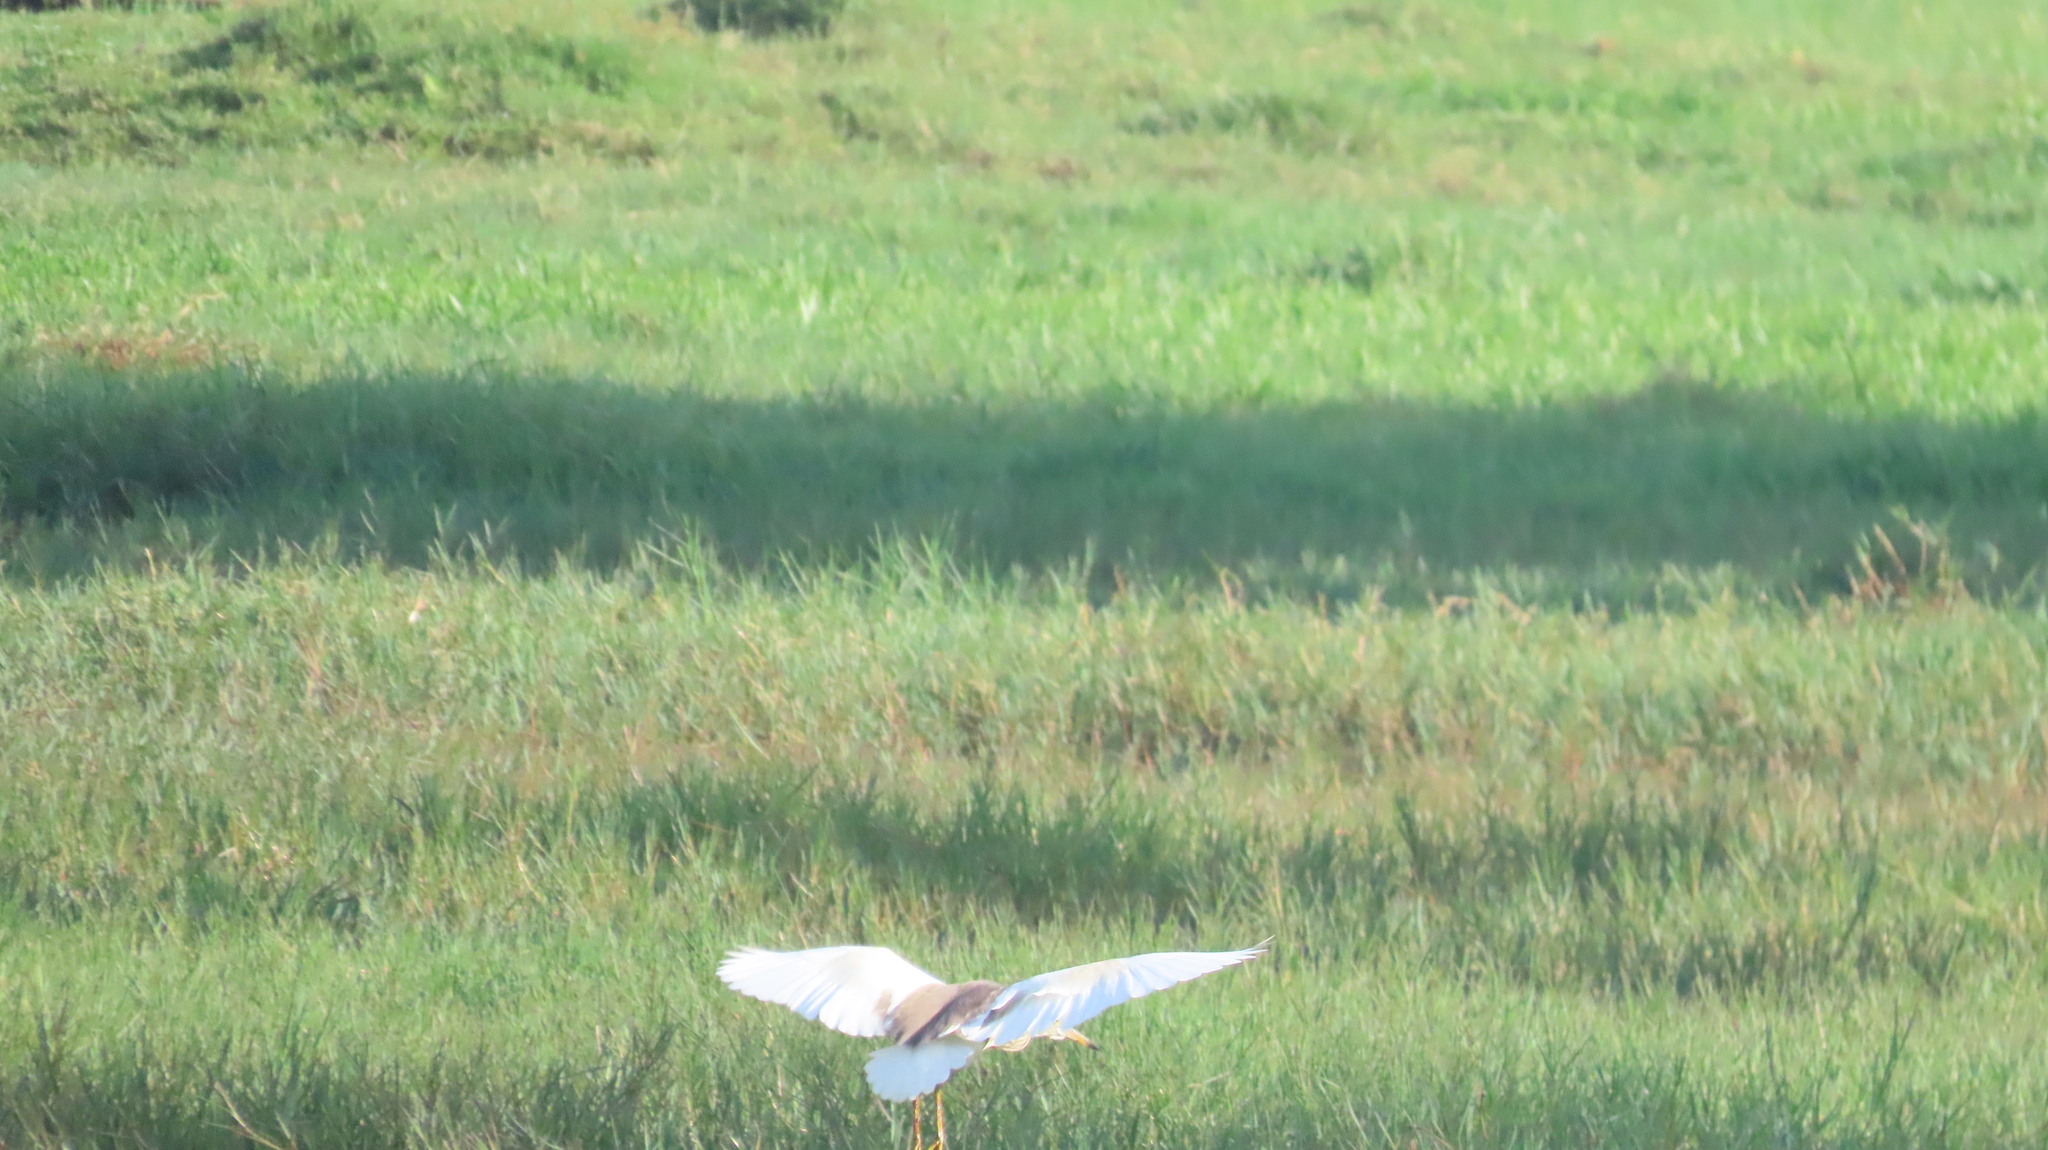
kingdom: Animalia
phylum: Chordata
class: Aves
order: Pelecaniformes
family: Ardeidae
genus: Ardeola
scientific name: Ardeola grayii
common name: Indian pond heron
